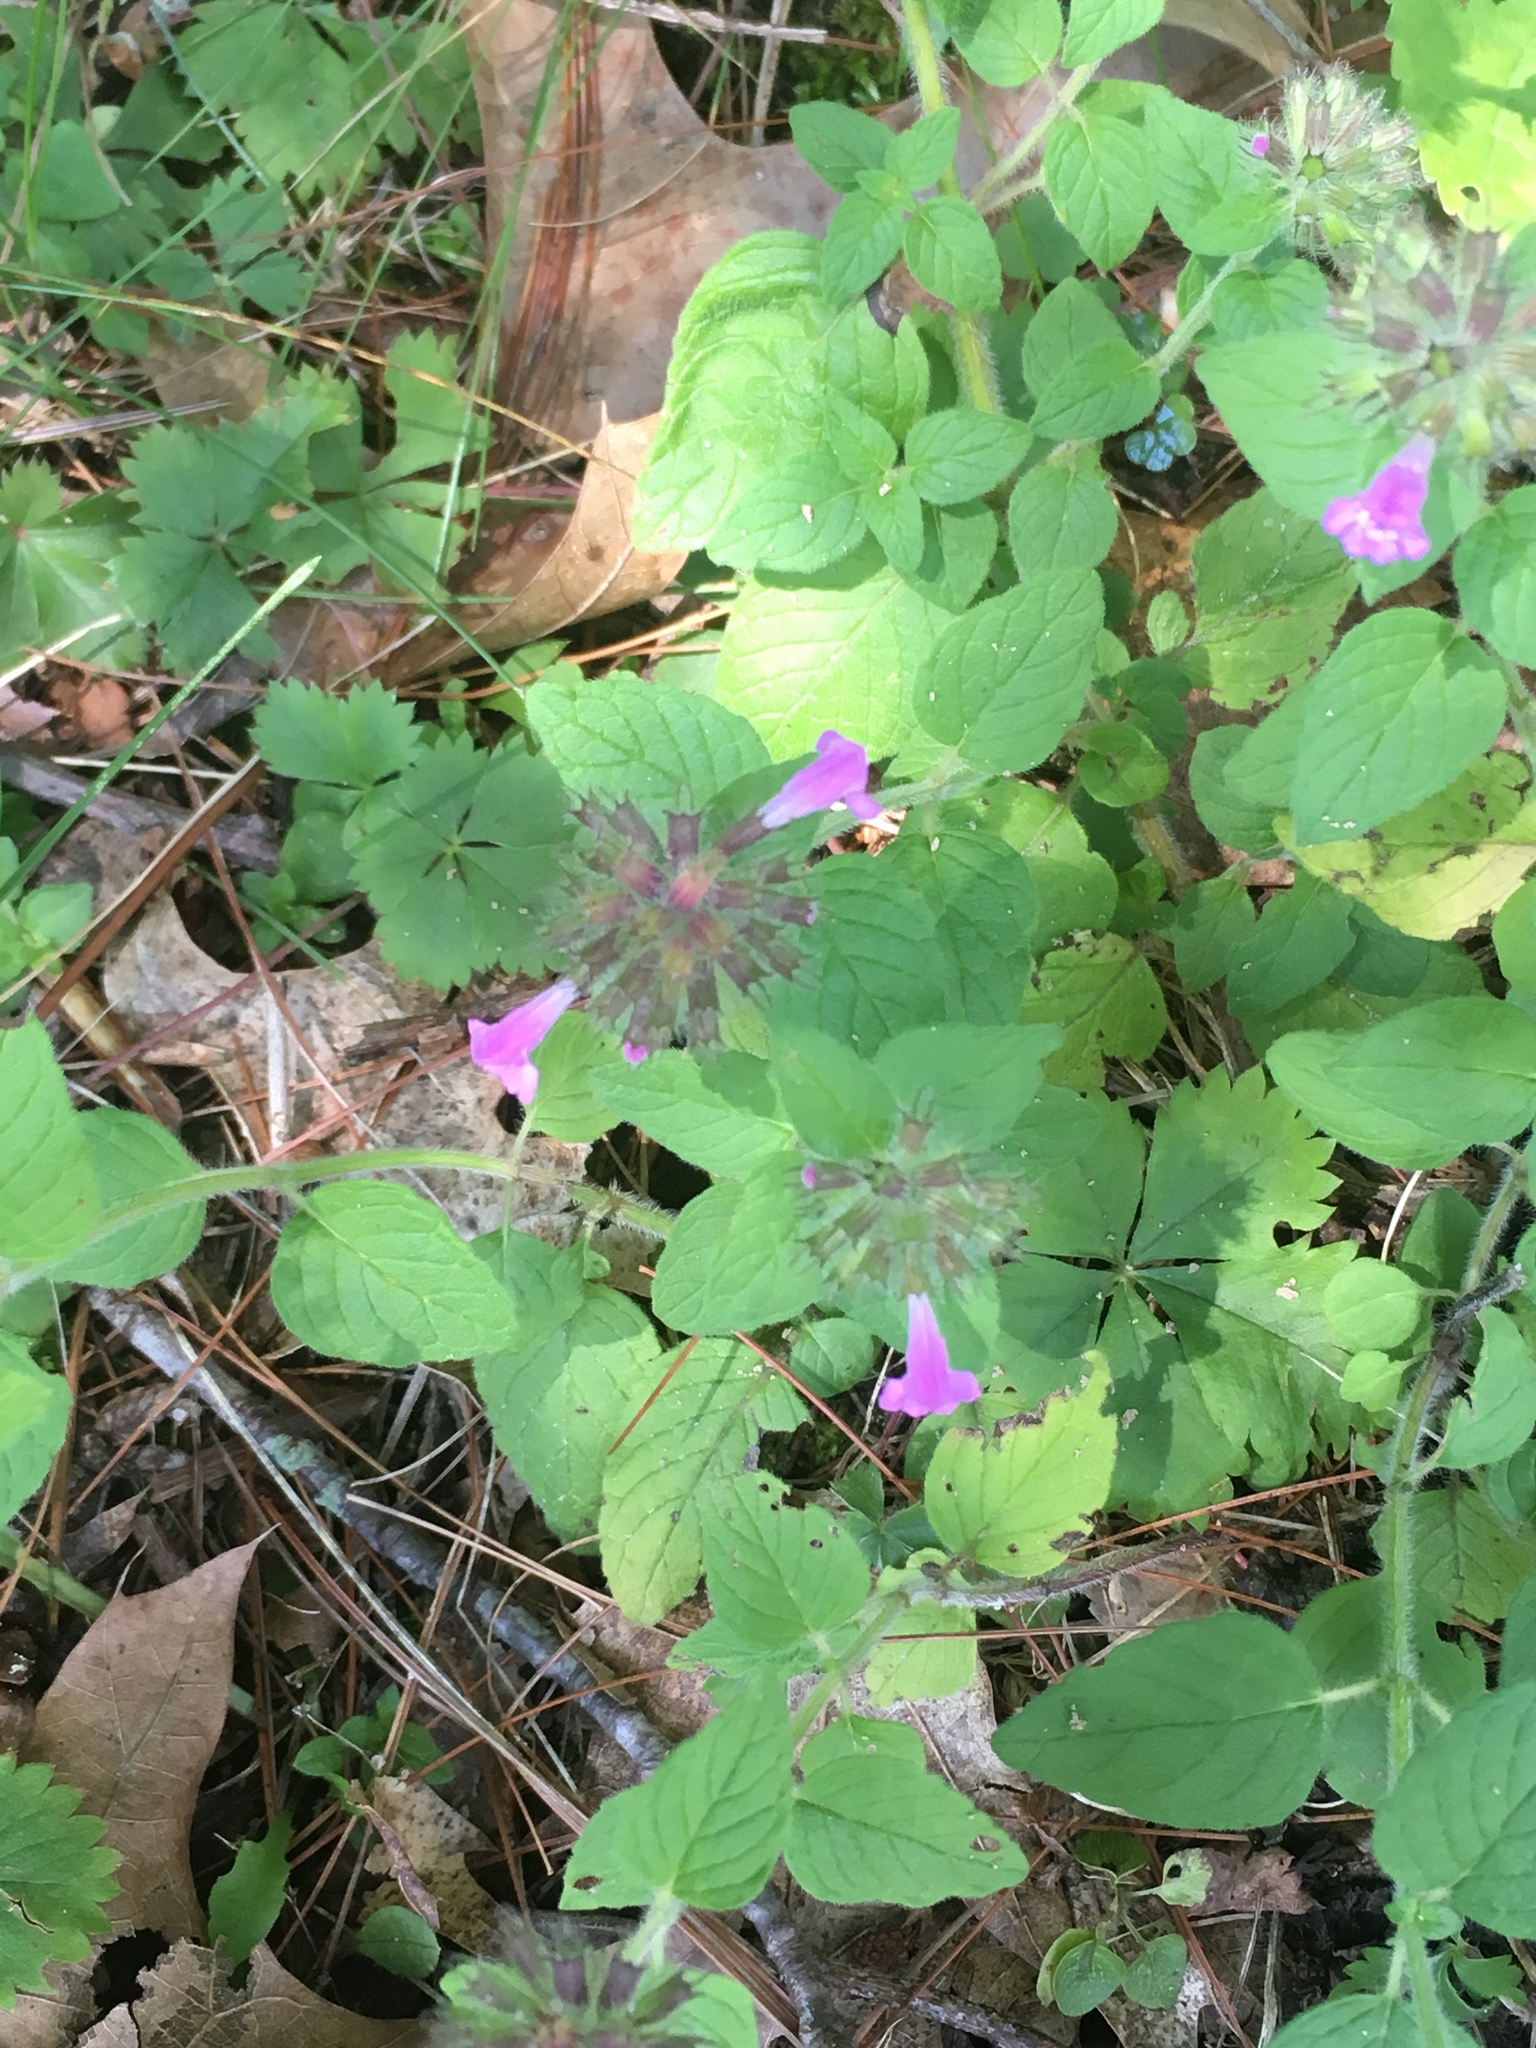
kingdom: Plantae
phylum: Tracheophyta
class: Magnoliopsida
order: Lamiales
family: Lamiaceae
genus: Clinopodium
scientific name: Clinopodium vulgare
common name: Wild basil
